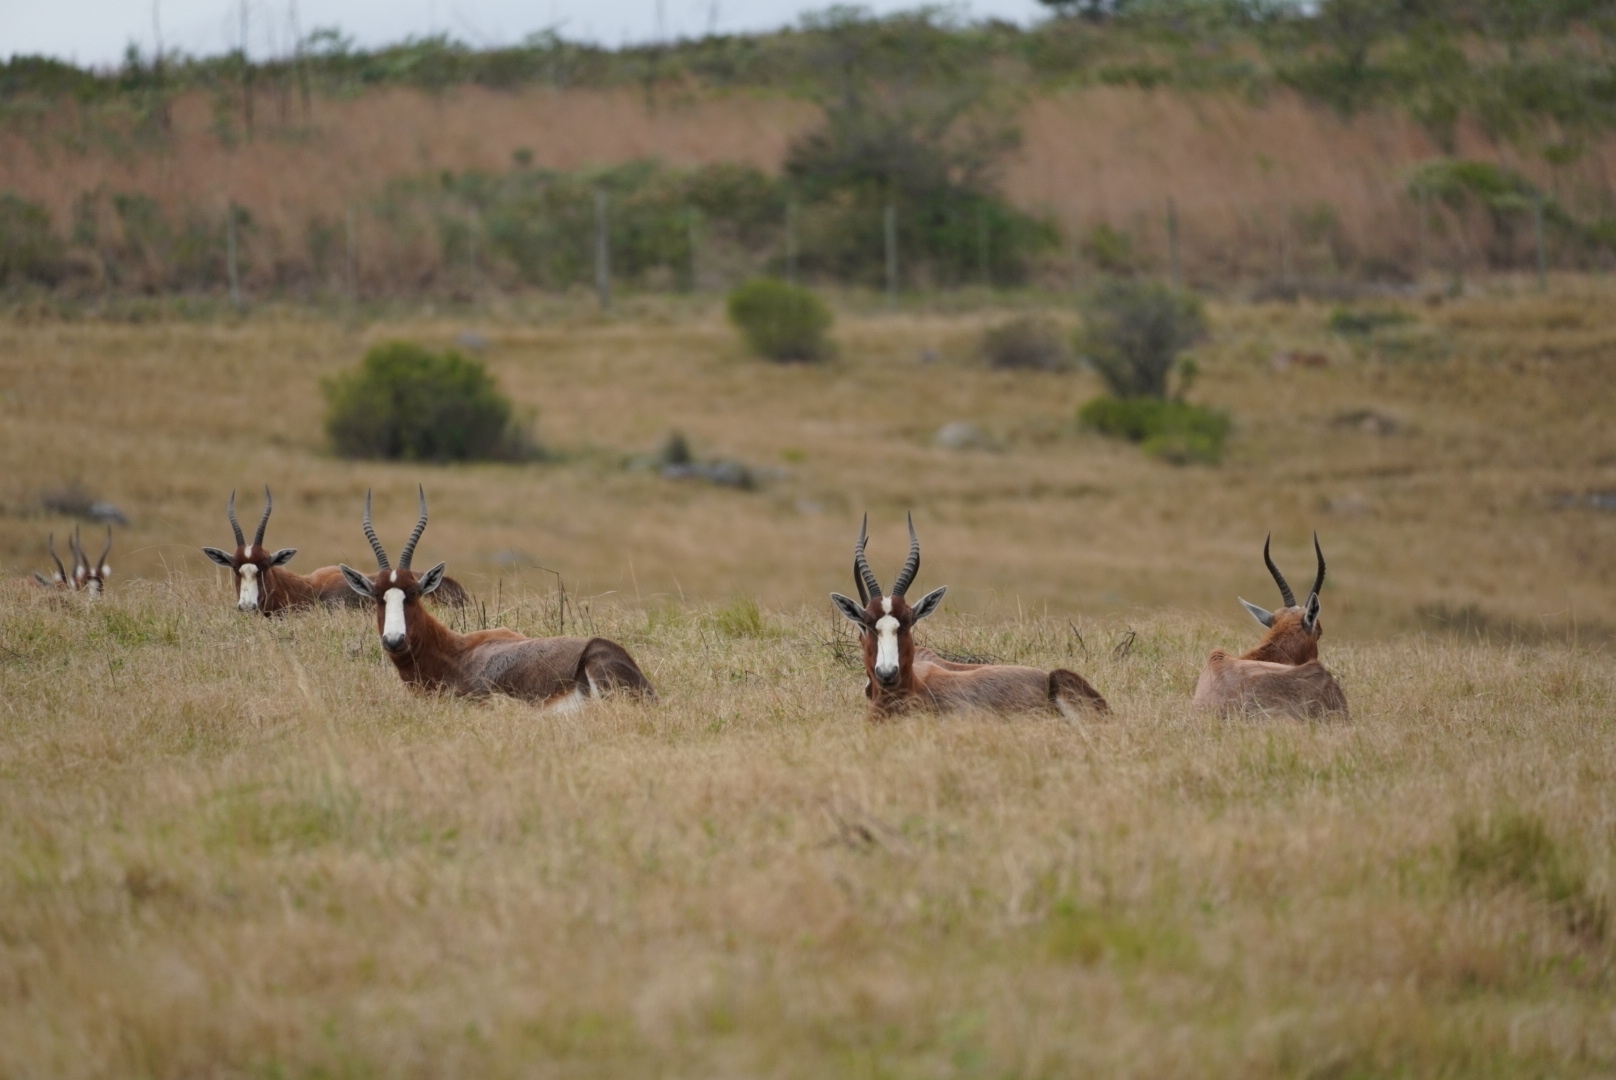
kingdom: Animalia
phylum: Chordata
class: Mammalia
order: Artiodactyla
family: Bovidae
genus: Damaliscus
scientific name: Damaliscus pygargus
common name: Bontebok
